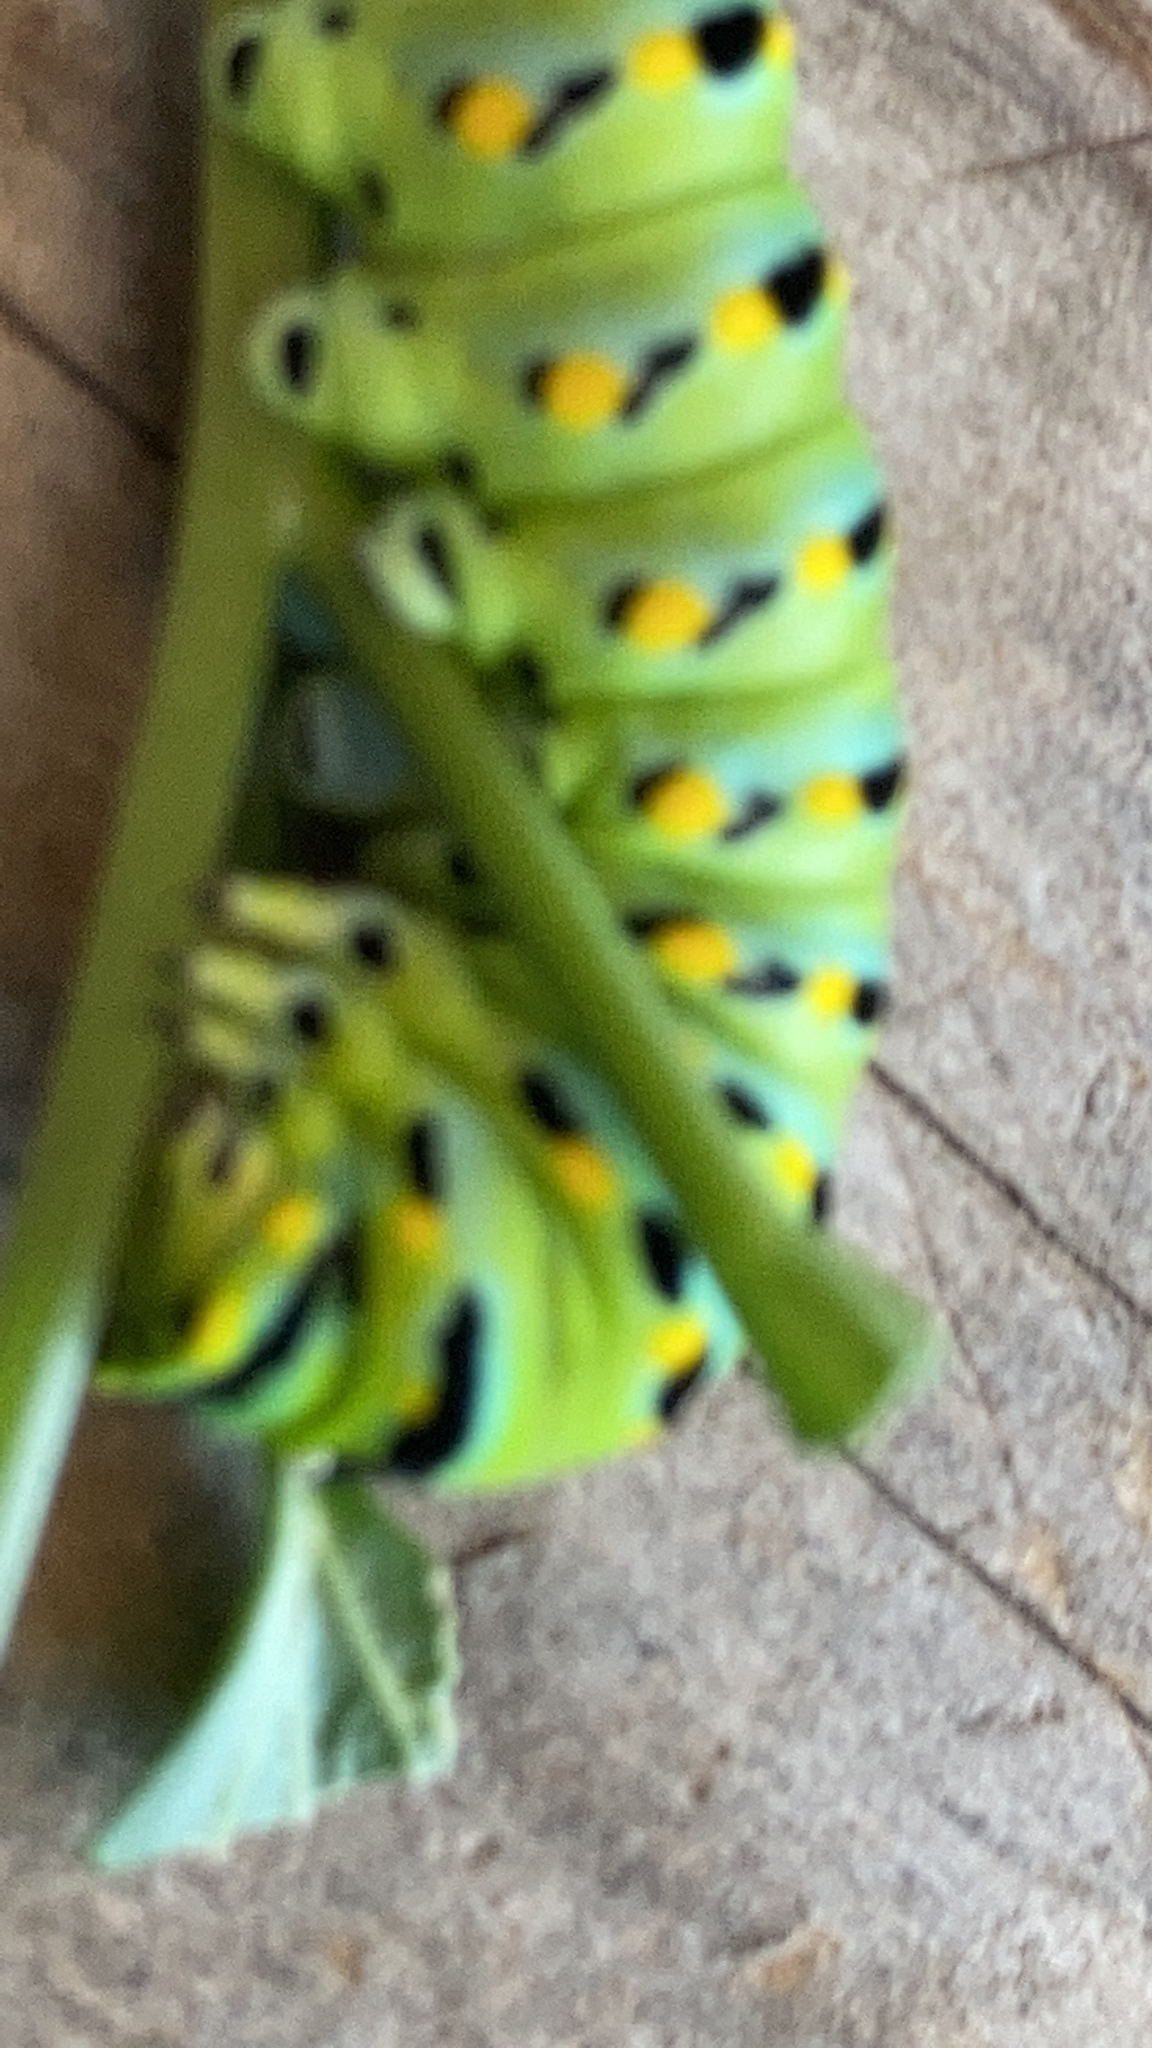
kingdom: Animalia
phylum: Arthropoda
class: Insecta
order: Lepidoptera
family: Papilionidae
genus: Papilio
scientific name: Papilio zelicaon
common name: Anise swallowtail
